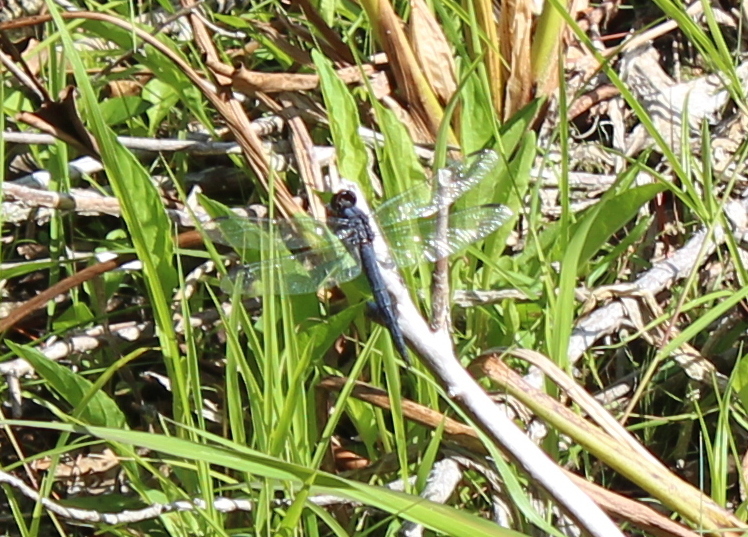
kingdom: Animalia
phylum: Arthropoda
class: Insecta
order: Odonata
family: Libellulidae
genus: Libellula
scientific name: Libellula incesta
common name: Slaty skimmer
